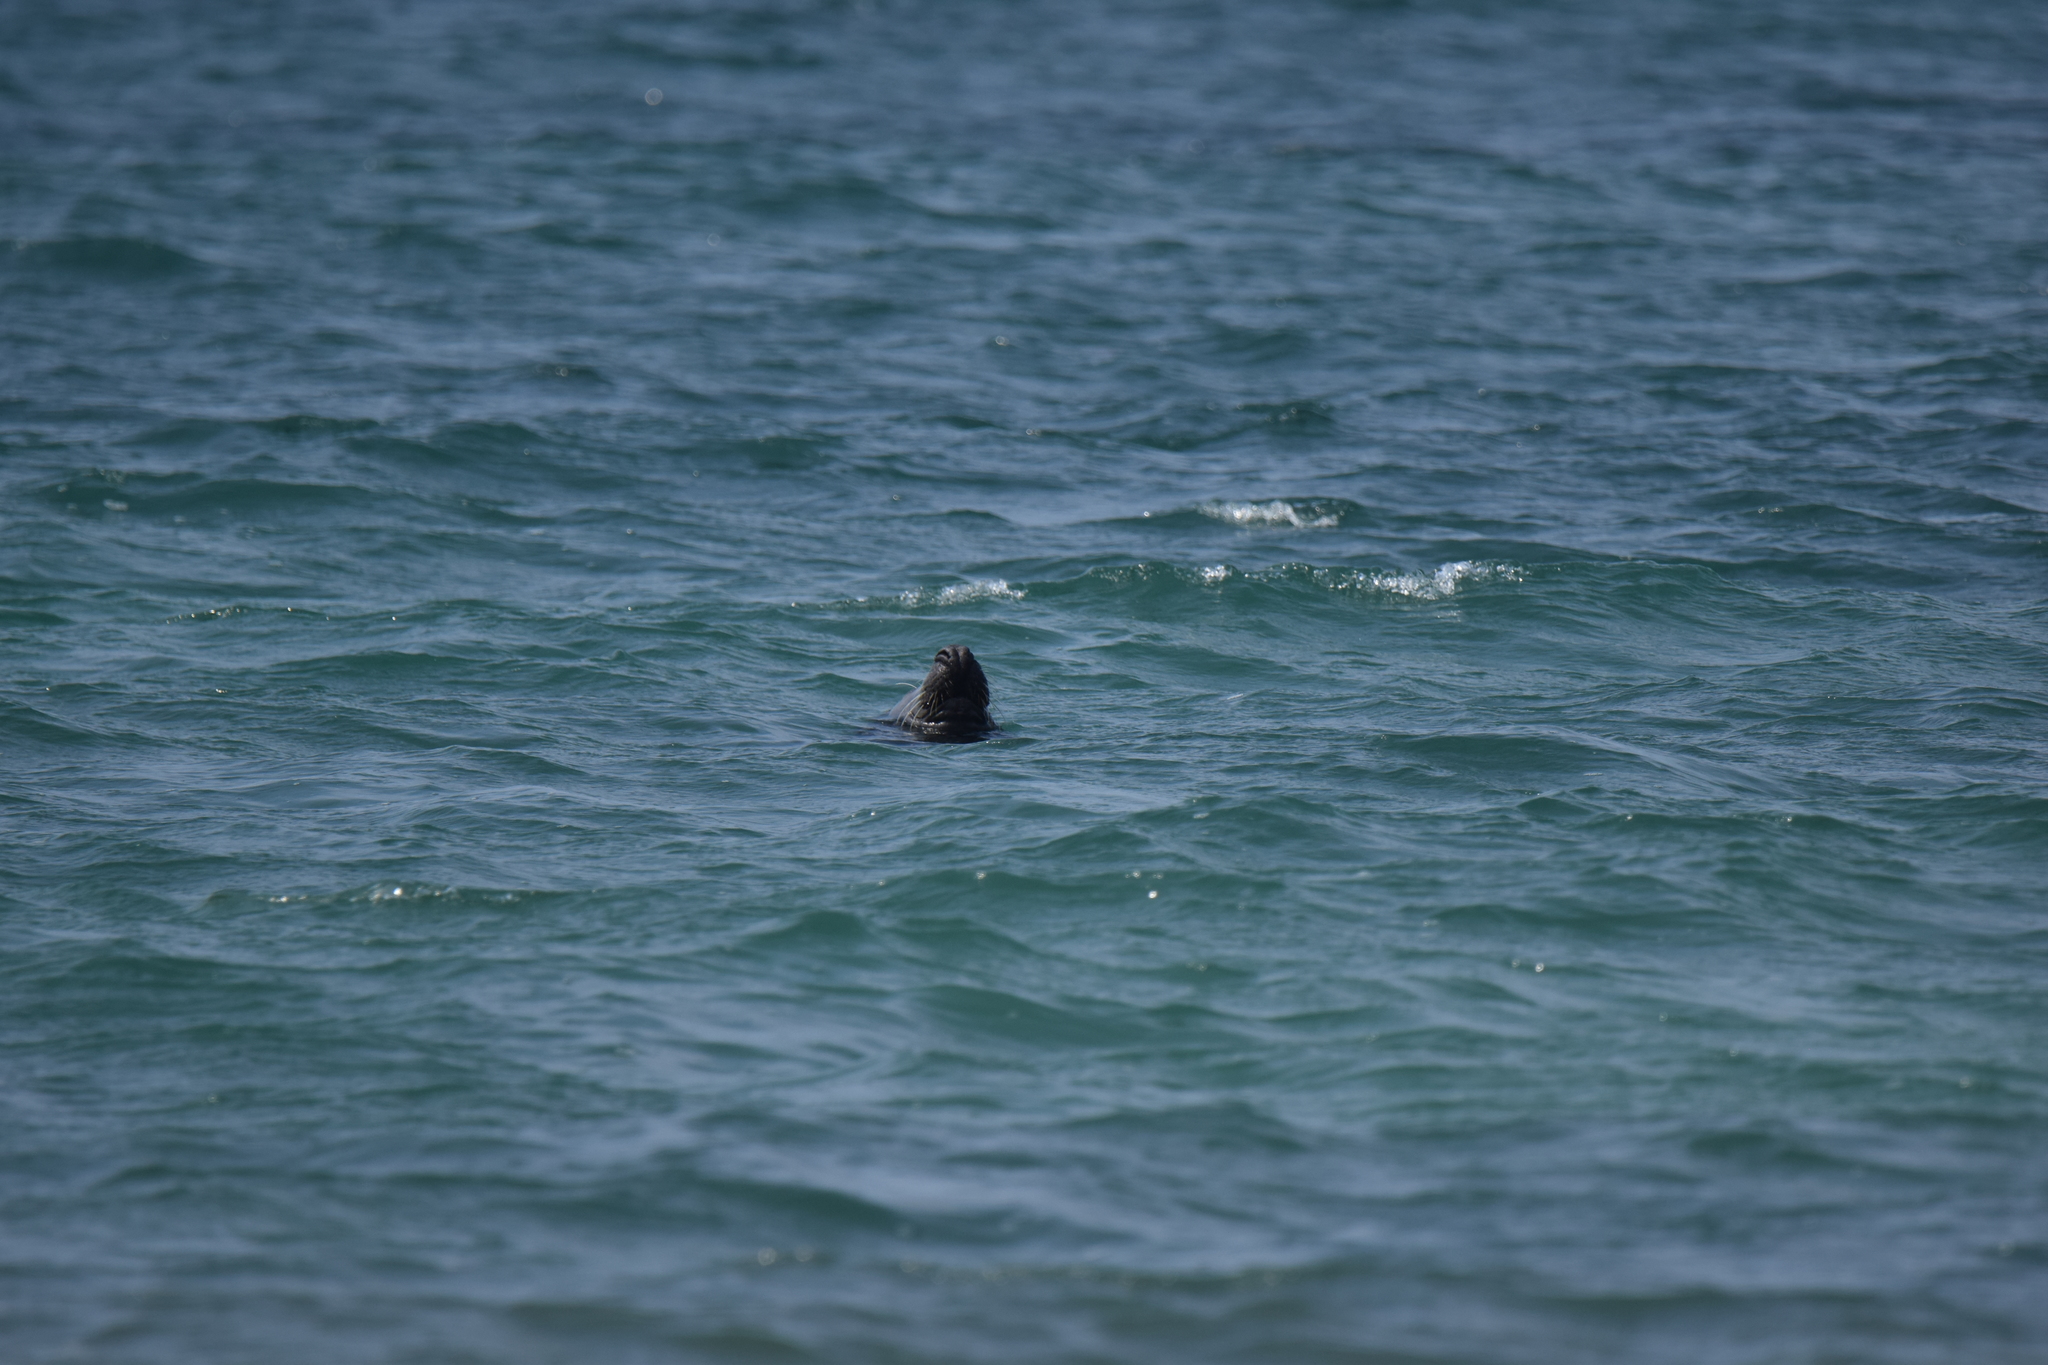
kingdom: Animalia
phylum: Chordata
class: Mammalia
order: Carnivora
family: Phocidae
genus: Halichoerus
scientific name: Halichoerus grypus
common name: Grey seal
